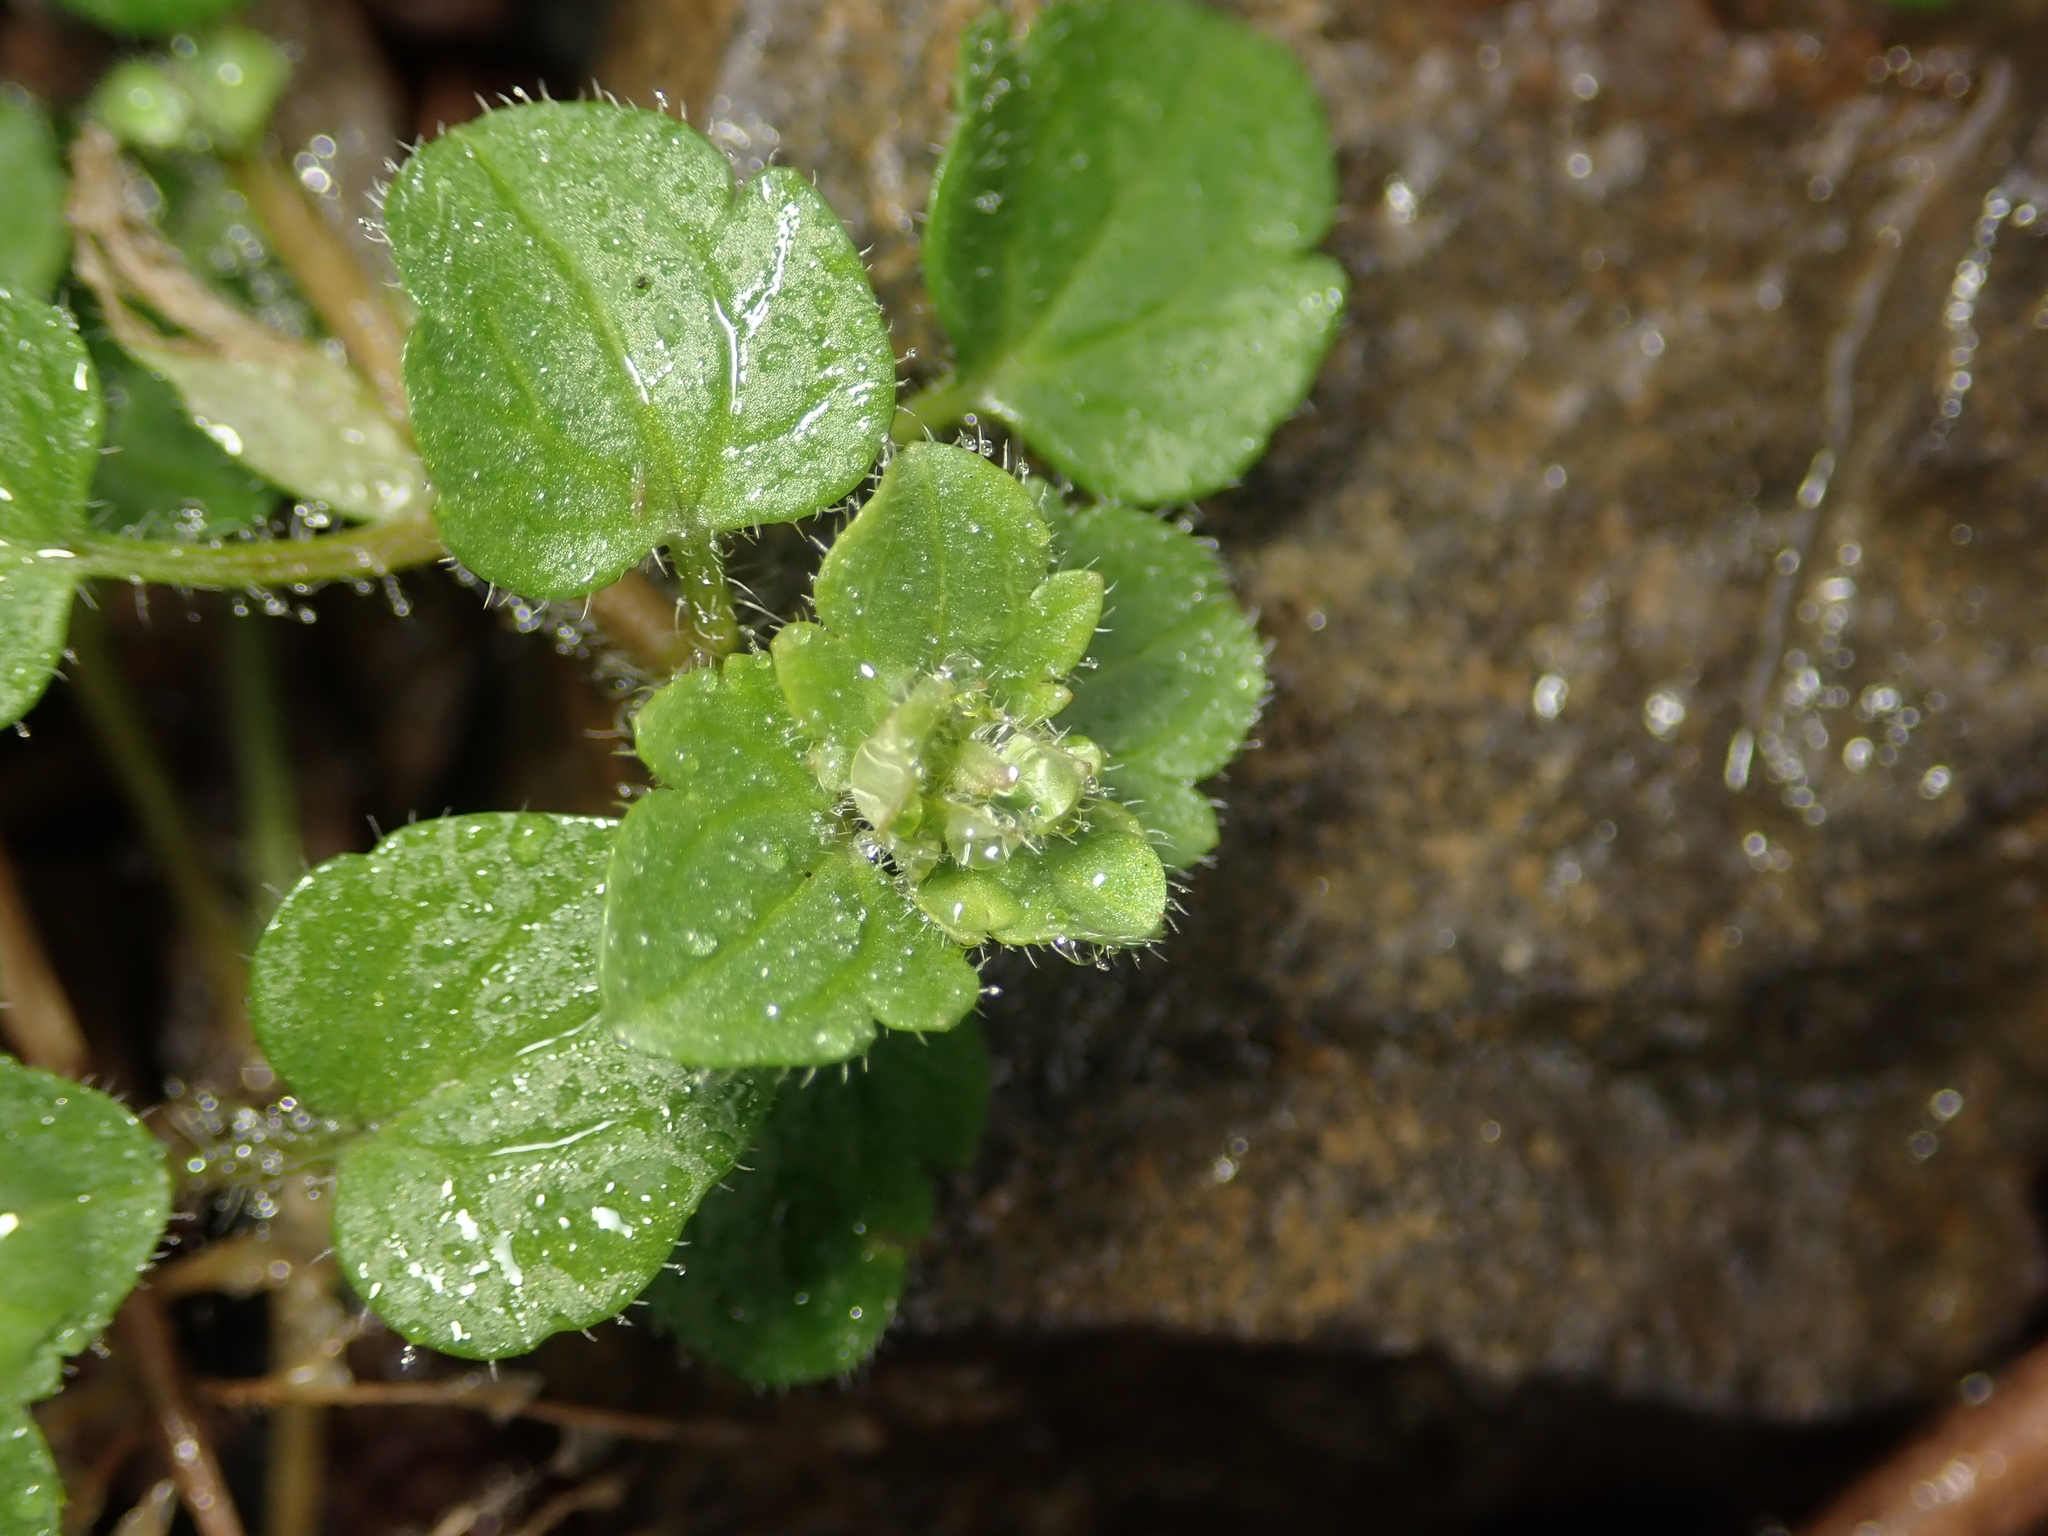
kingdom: Plantae
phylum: Tracheophyta
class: Magnoliopsida
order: Lamiales
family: Plantaginaceae
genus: Veronica
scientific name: Veronica hederifolia
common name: Ivy-leaved speedwell
